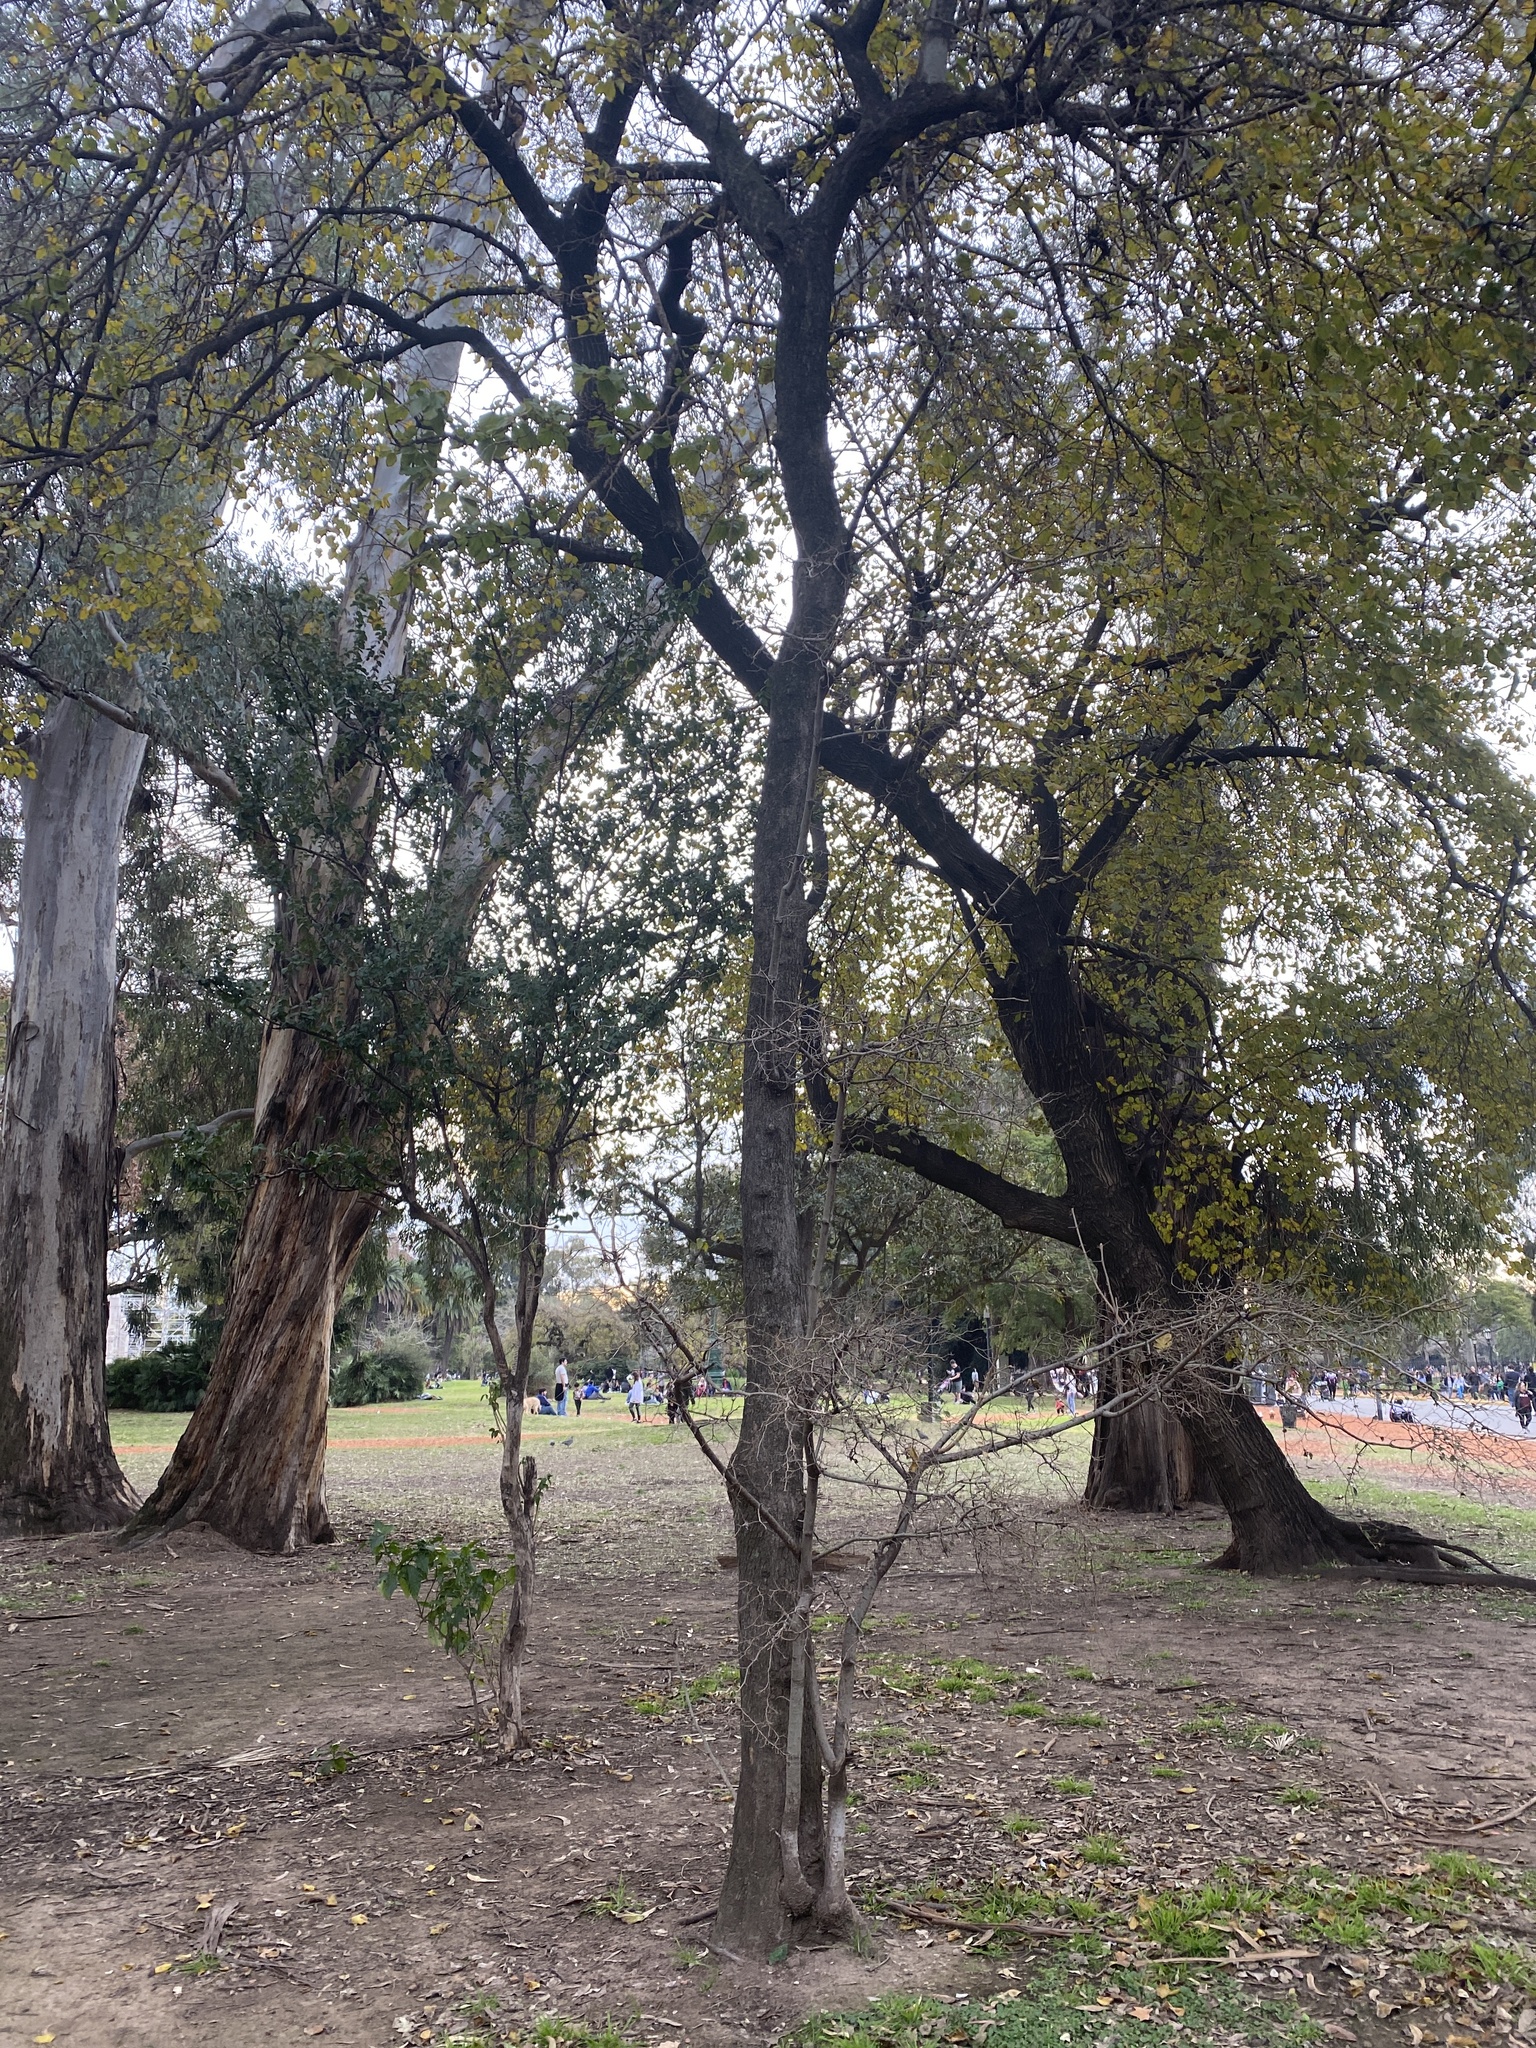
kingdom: Plantae
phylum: Tracheophyta
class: Magnoliopsida
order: Rosales
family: Cannabaceae
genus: Celtis
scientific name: Celtis tala
